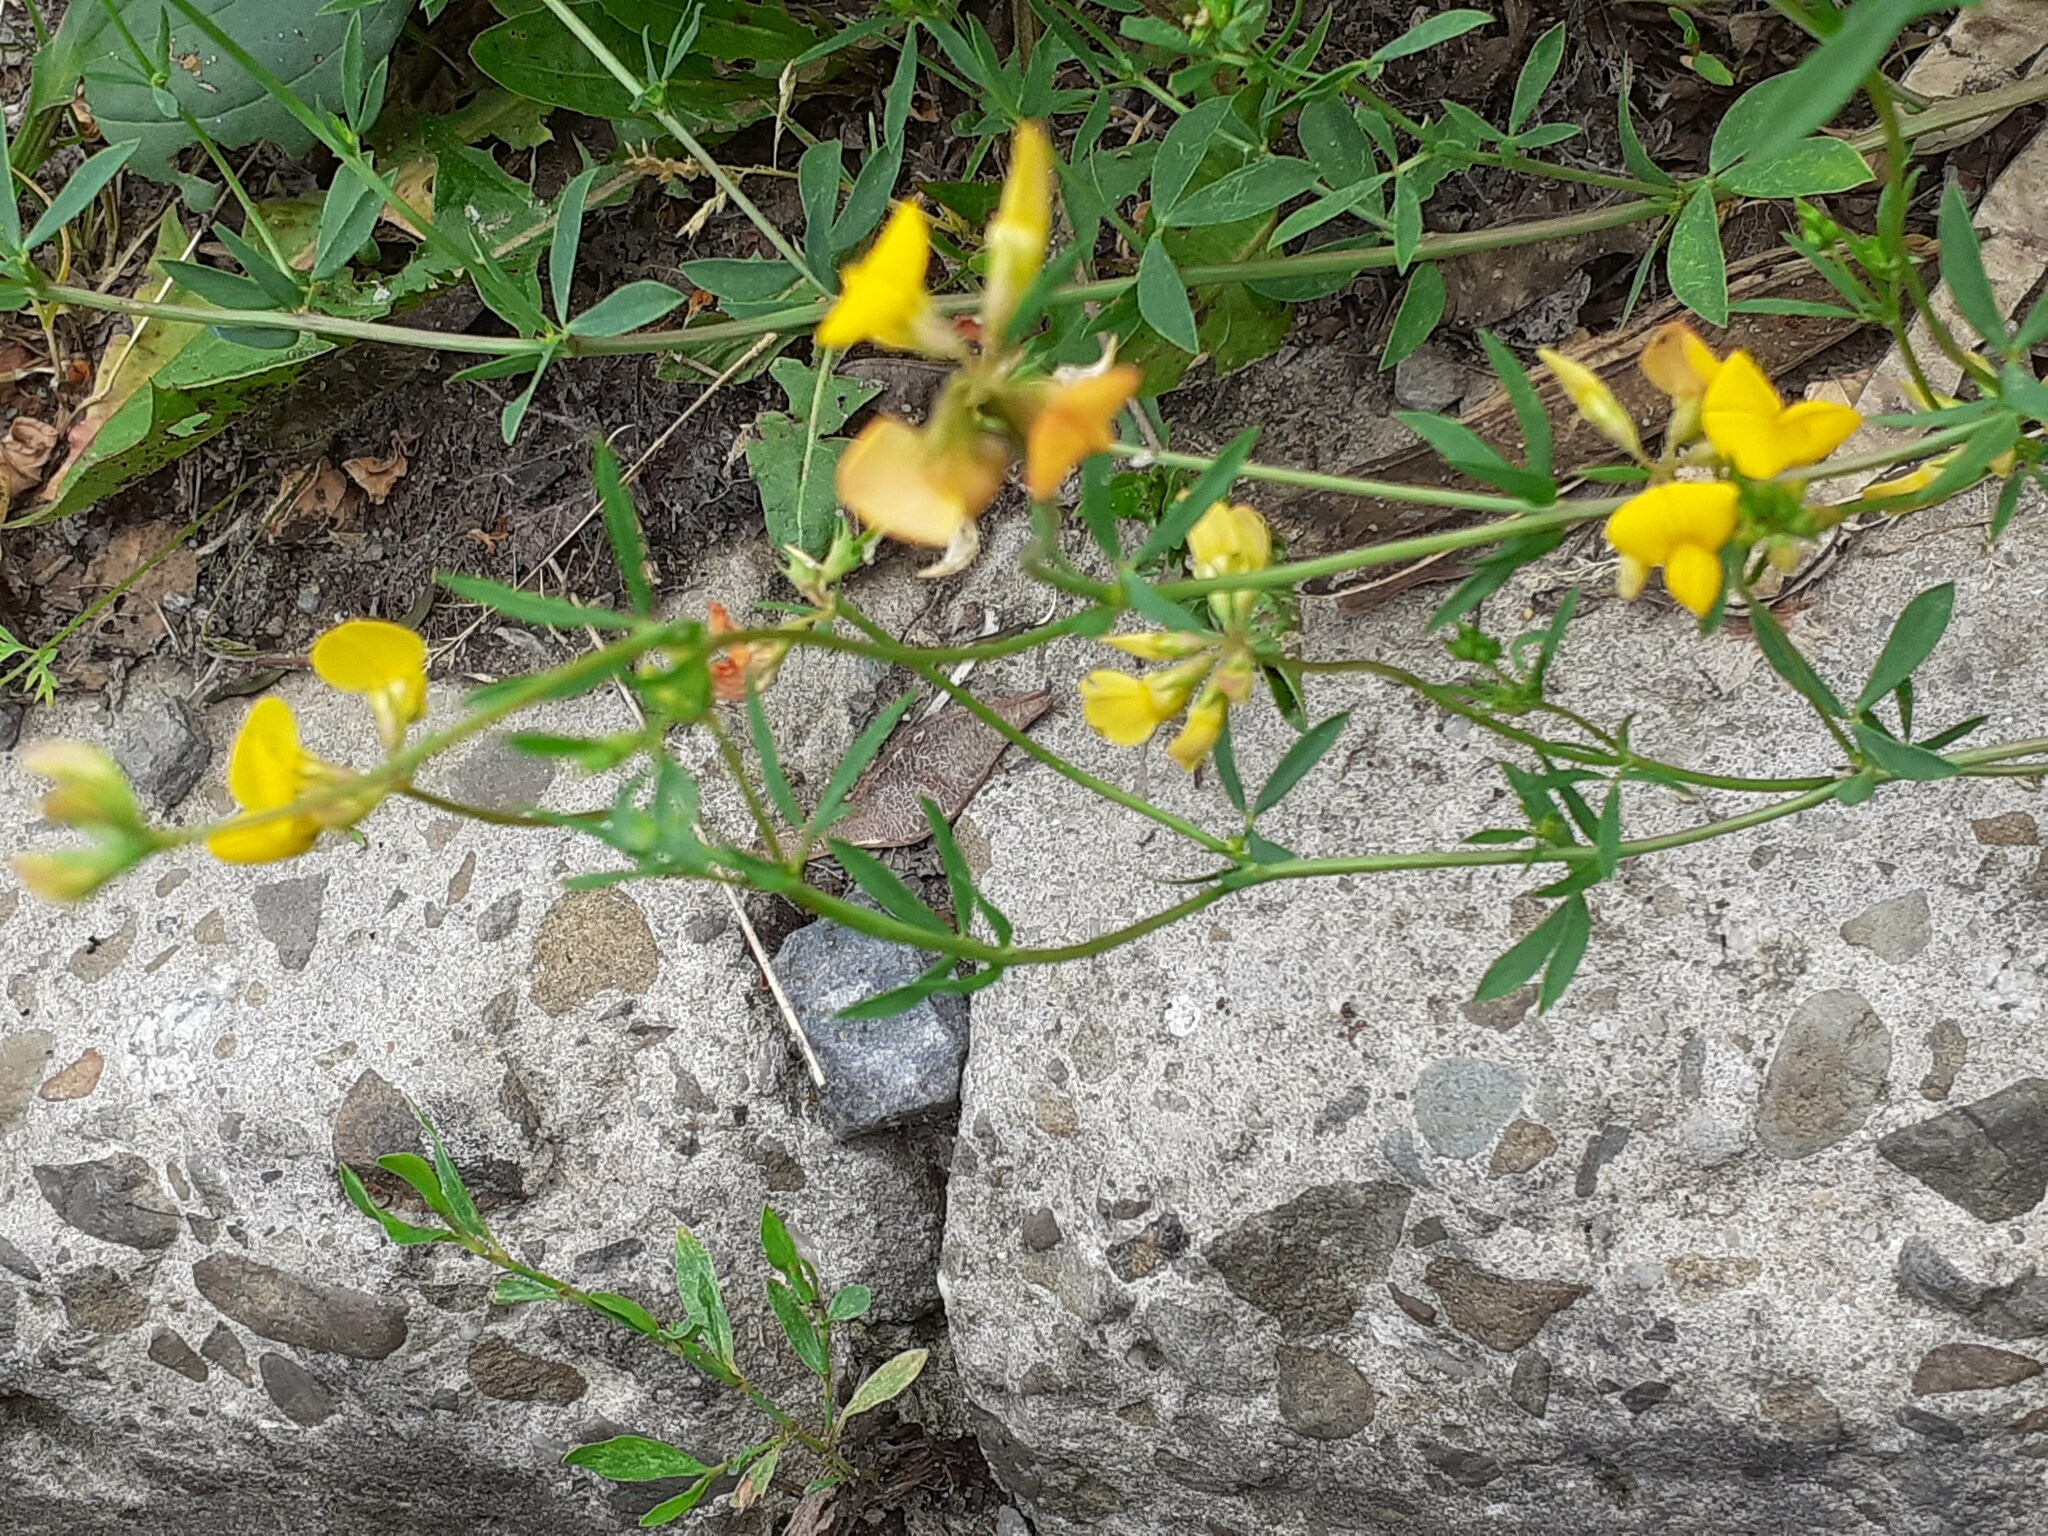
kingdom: Plantae
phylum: Tracheophyta
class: Magnoliopsida
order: Fabales
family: Fabaceae
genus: Lotus
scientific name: Lotus corniculatus
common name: Common bird's-foot-trefoil
